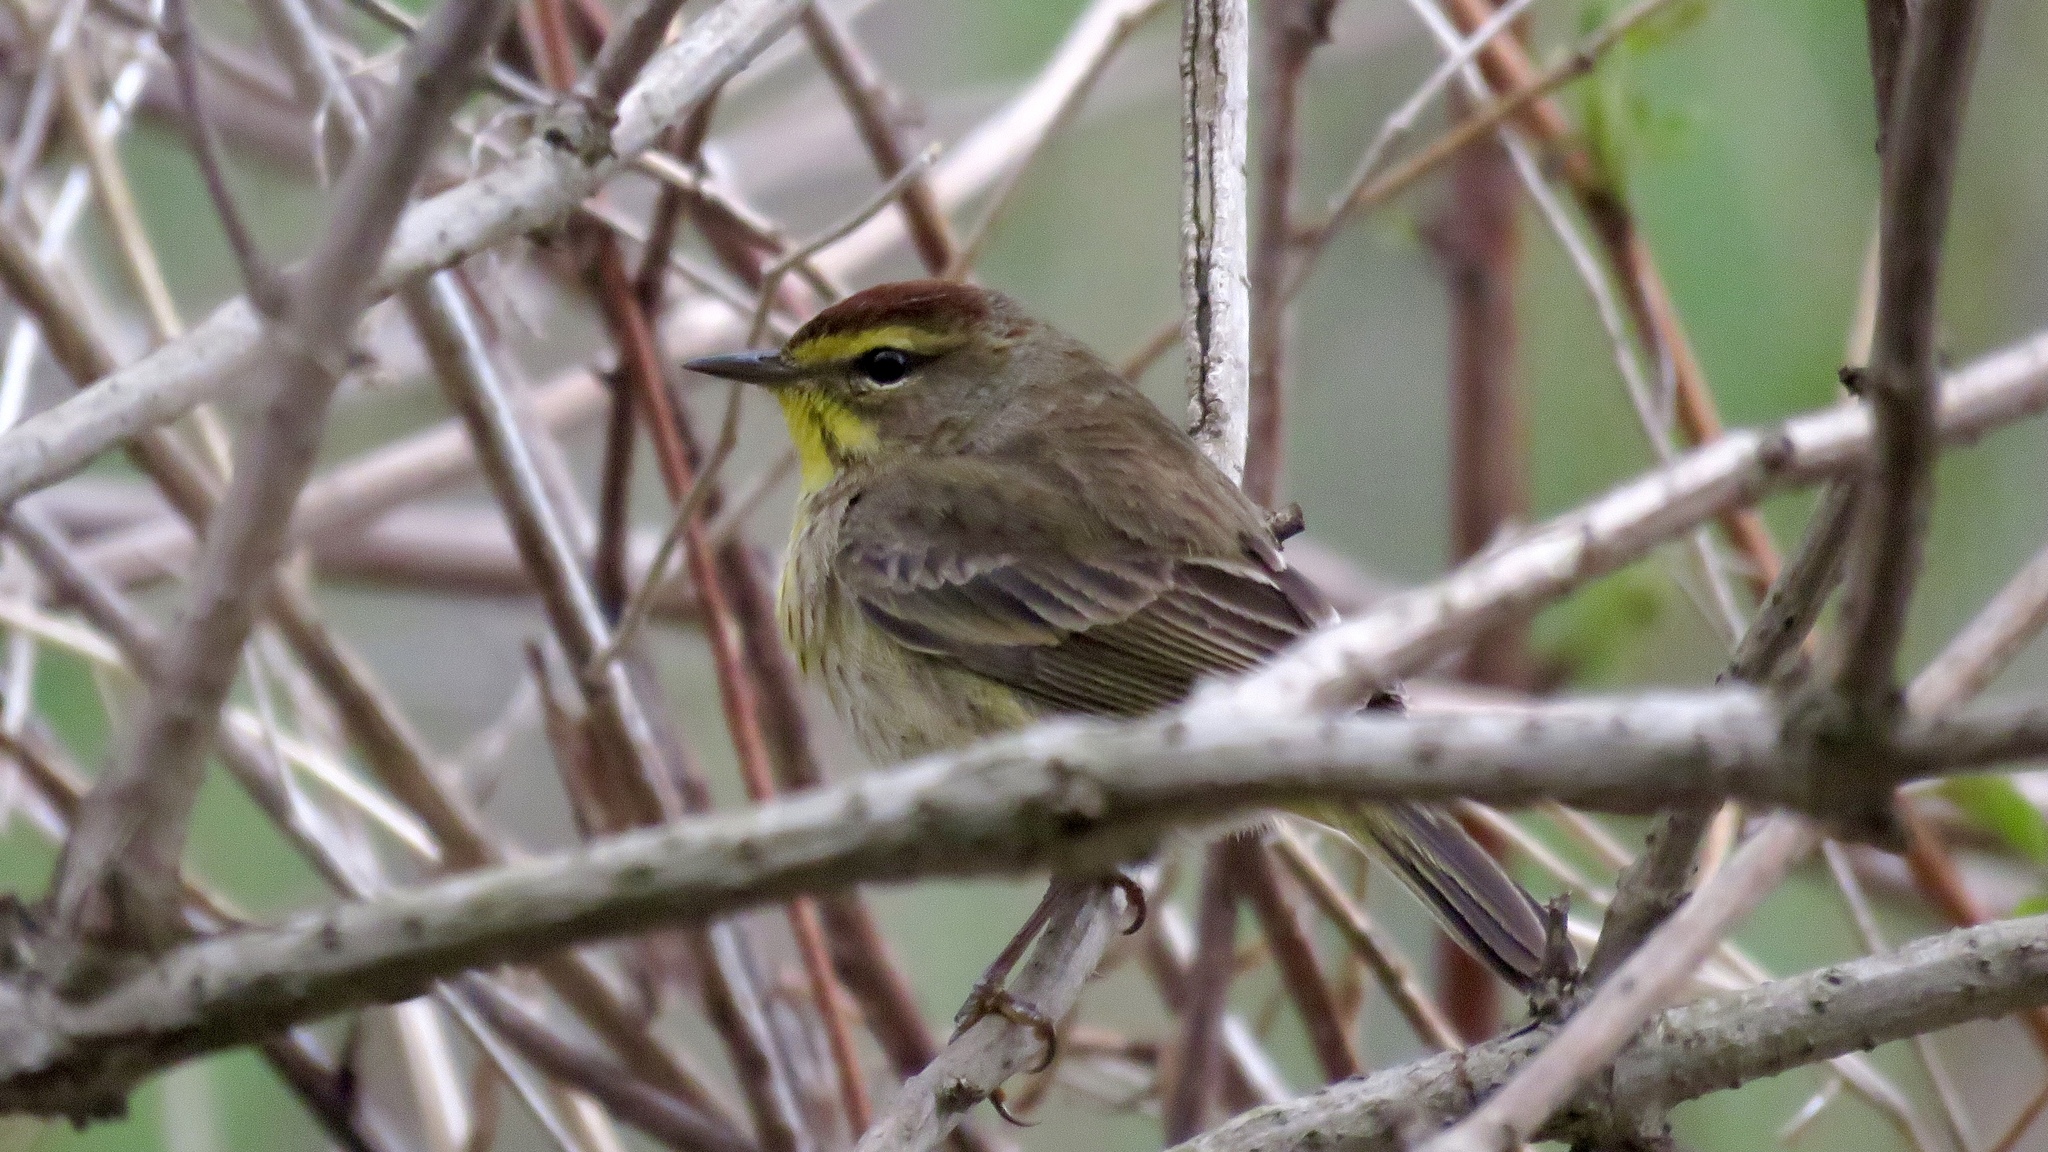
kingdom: Animalia
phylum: Chordata
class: Aves
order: Passeriformes
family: Parulidae
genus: Setophaga
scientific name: Setophaga palmarum
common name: Palm warbler
